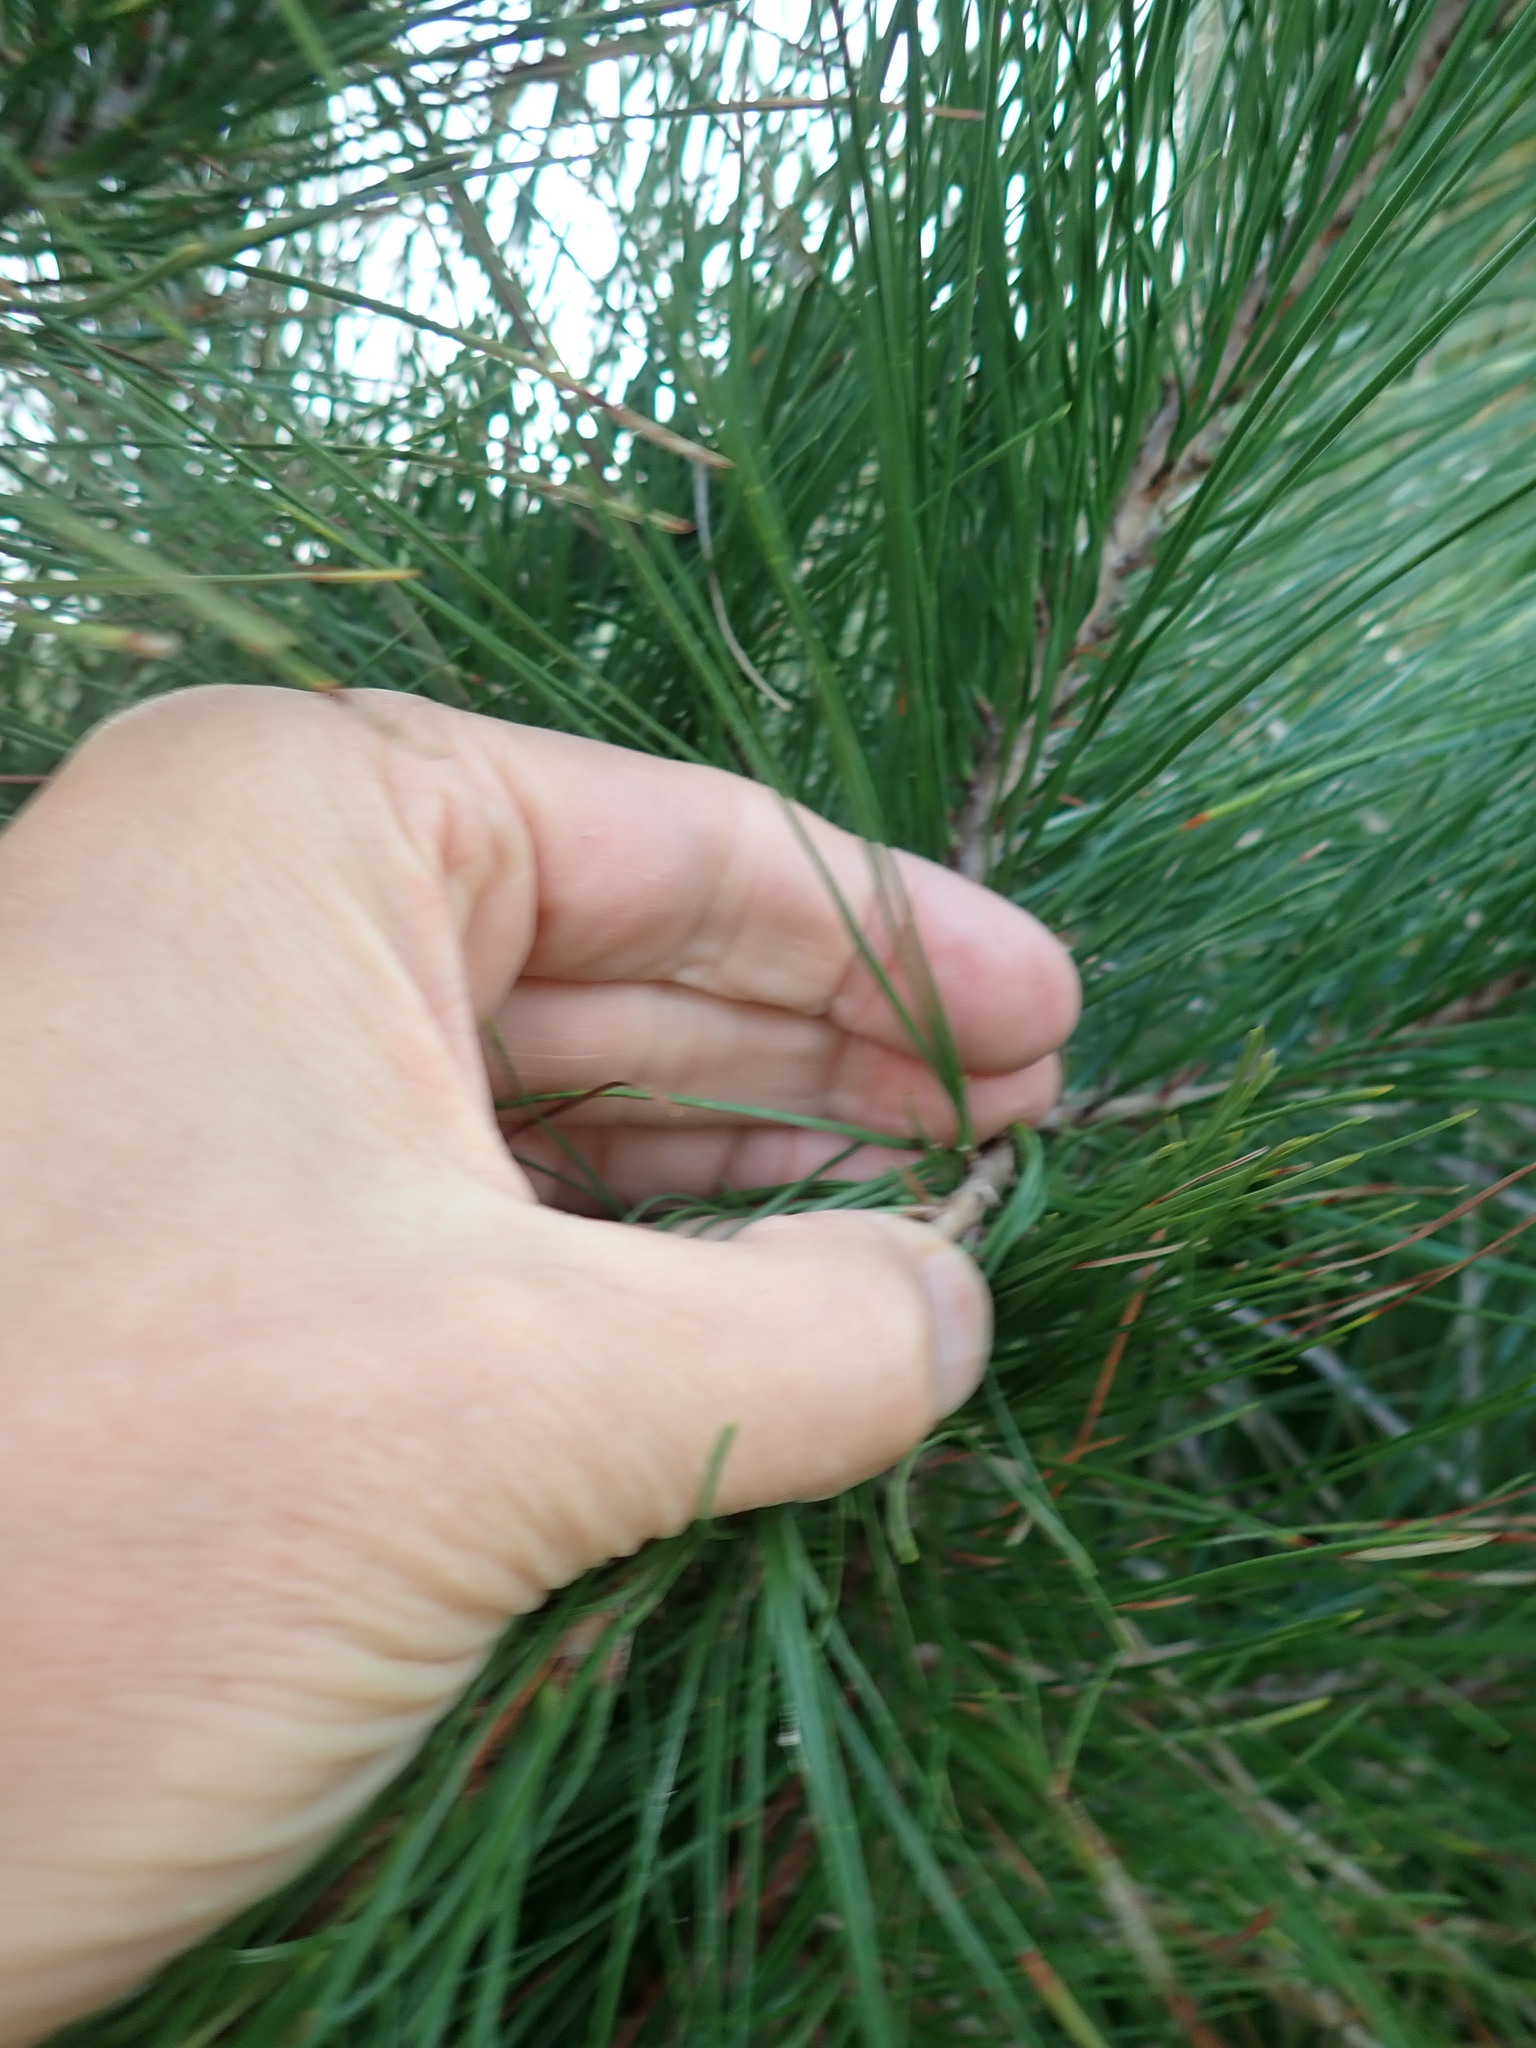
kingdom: Plantae
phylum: Tracheophyta
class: Pinopsida
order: Pinales
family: Pinaceae
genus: Pinus
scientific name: Pinus radiata
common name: Monterey pine
